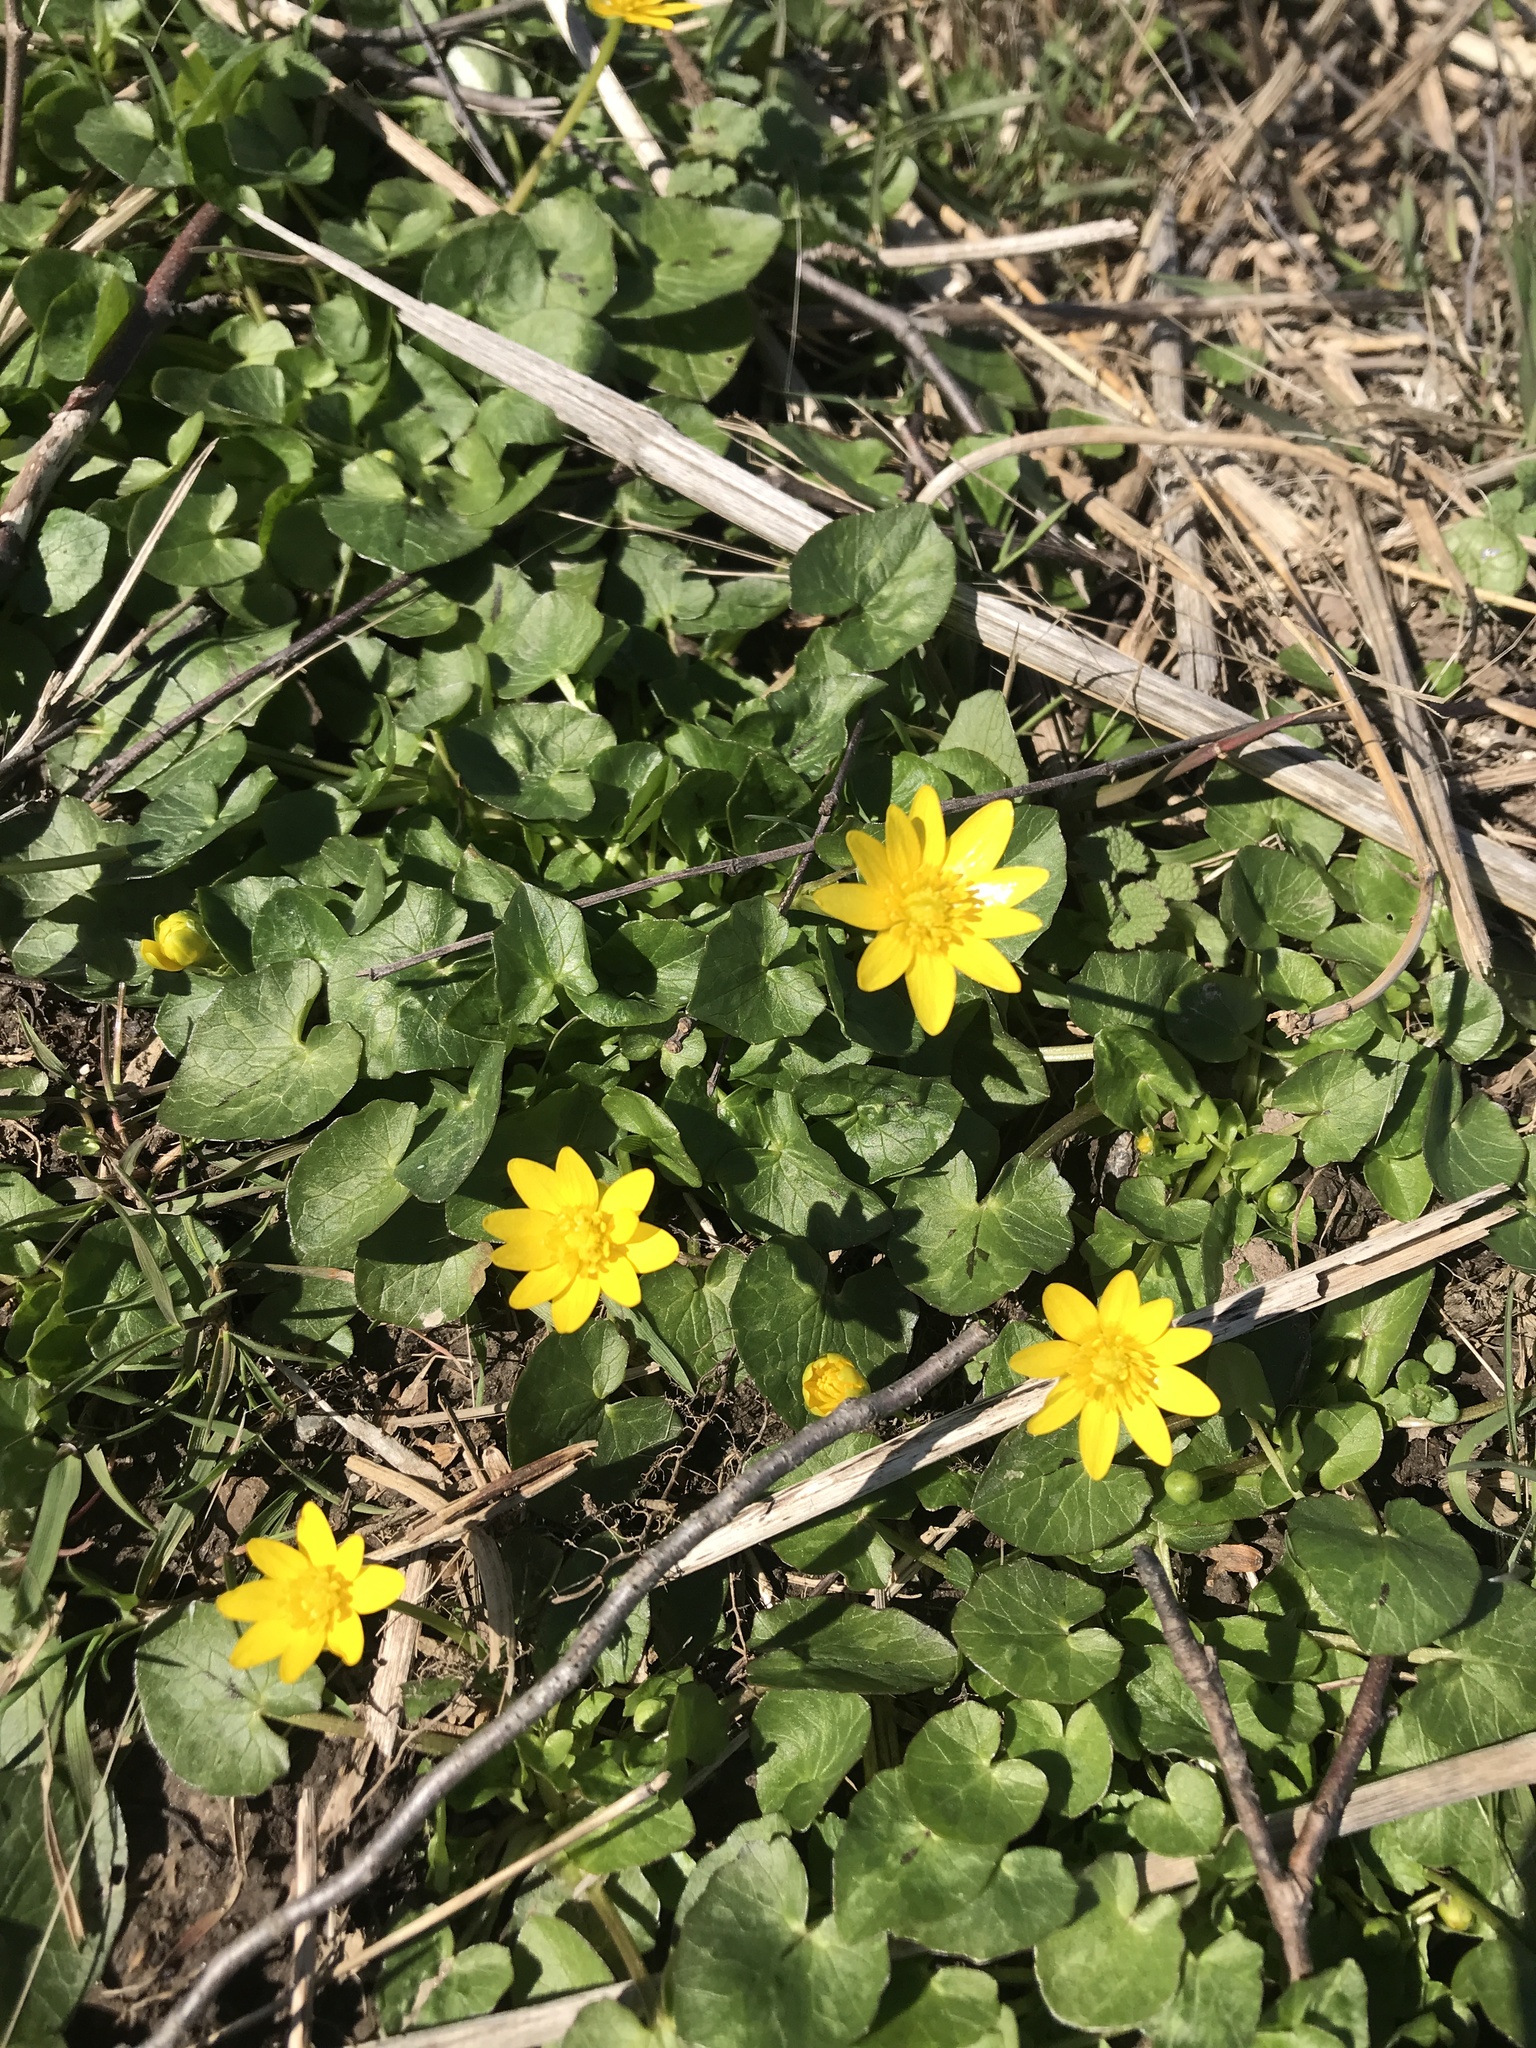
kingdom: Plantae
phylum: Tracheophyta
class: Magnoliopsida
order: Ranunculales
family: Ranunculaceae
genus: Ficaria
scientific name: Ficaria verna
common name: Lesser celandine
